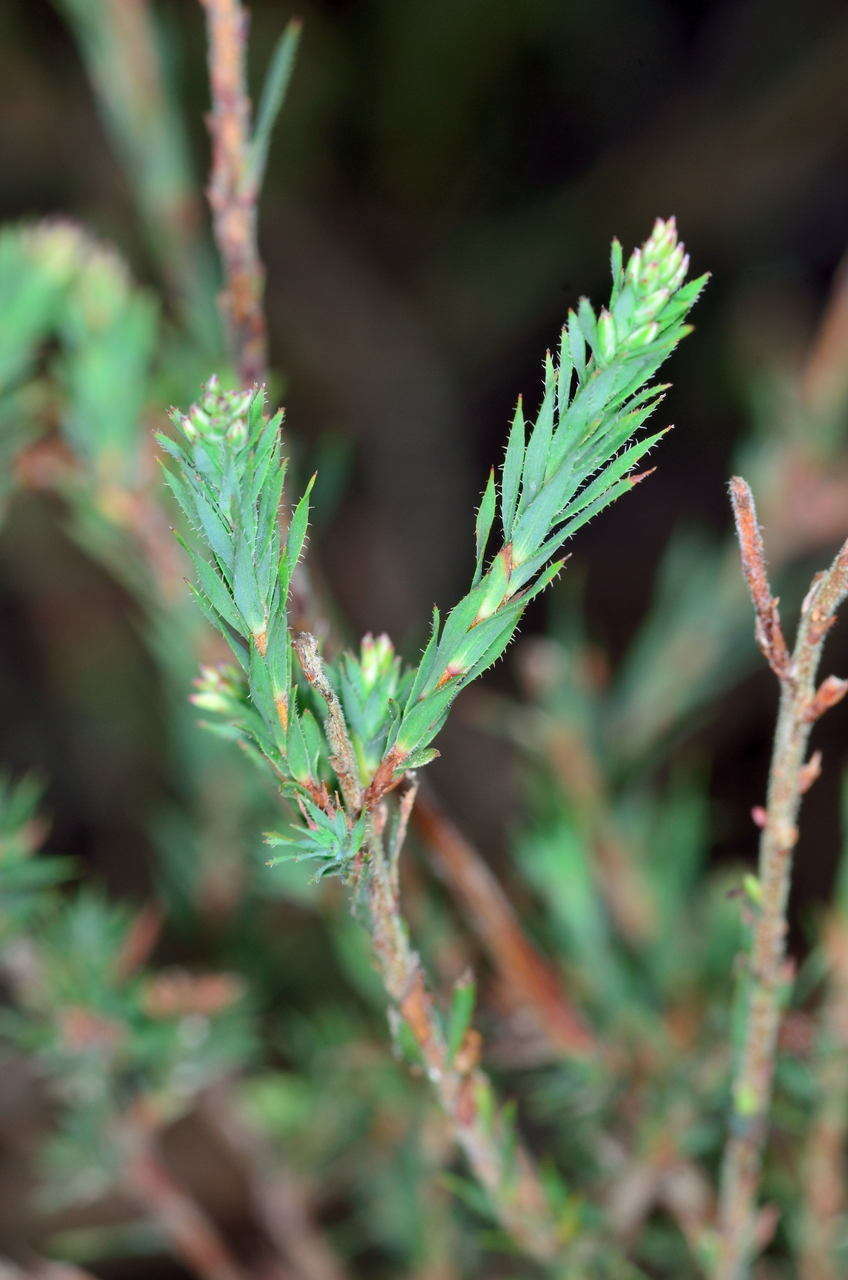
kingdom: Plantae
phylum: Tracheophyta
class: Magnoliopsida
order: Ericales
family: Ericaceae
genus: Leucopogon
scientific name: Leucopogon glacialis
